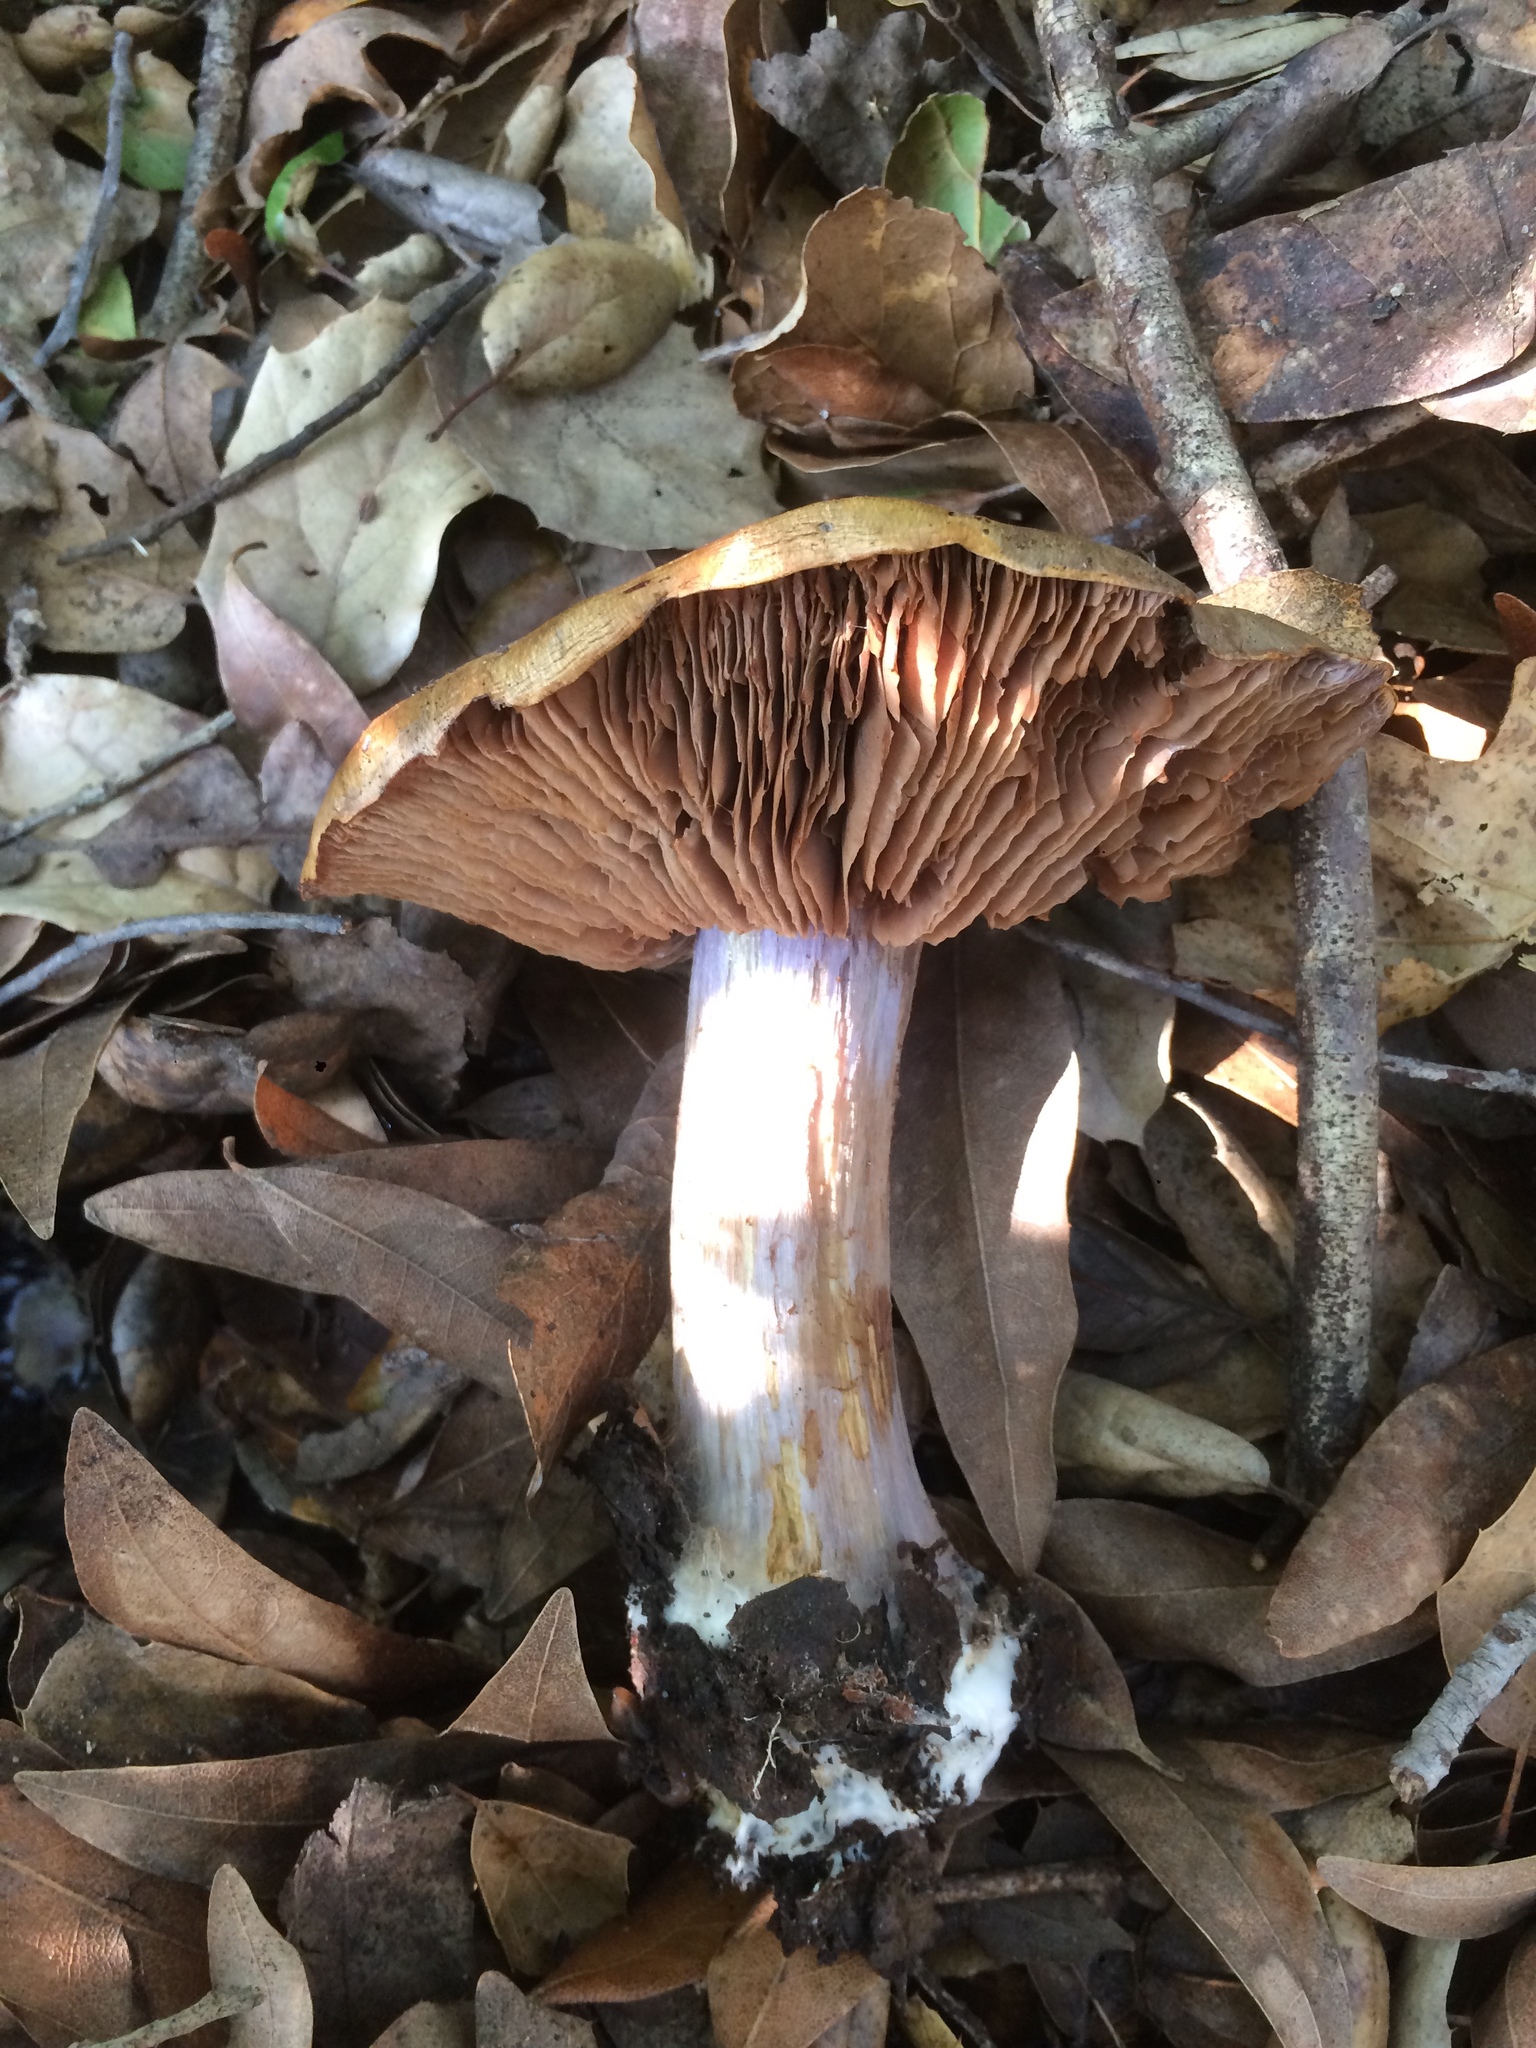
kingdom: Fungi
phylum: Basidiomycota
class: Agaricomycetes
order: Agaricales
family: Cortinariaceae
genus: Phlegmacium
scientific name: Phlegmacium glaucopus
